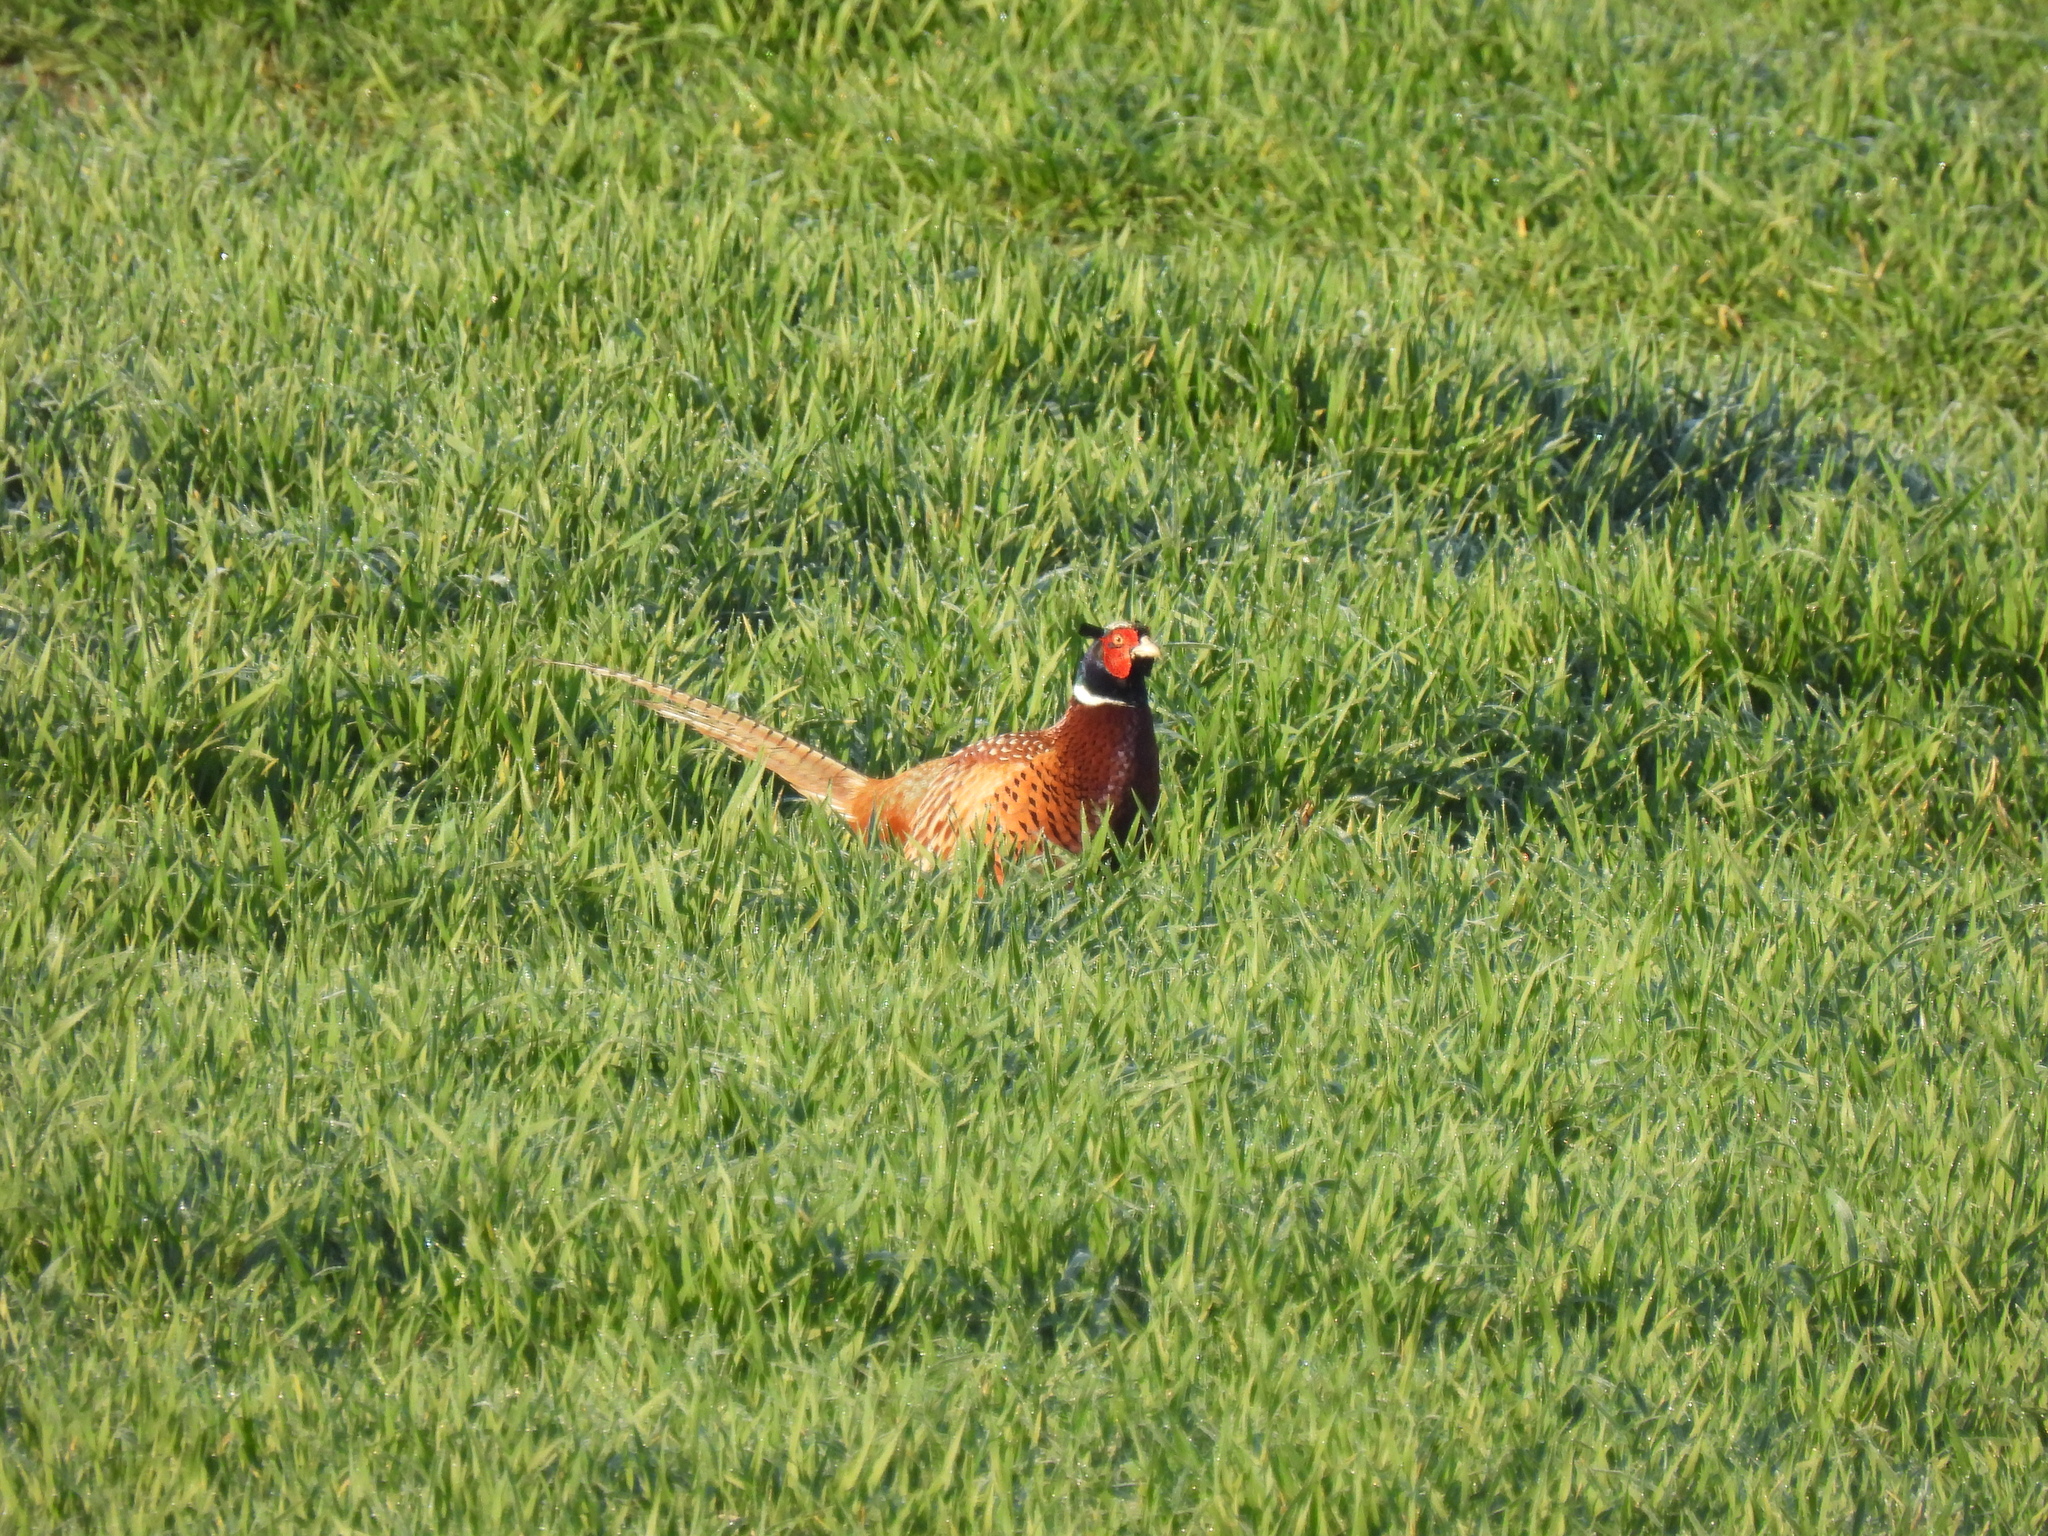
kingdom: Animalia
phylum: Chordata
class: Aves
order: Galliformes
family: Phasianidae
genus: Phasianus
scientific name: Phasianus colchicus
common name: Common pheasant
